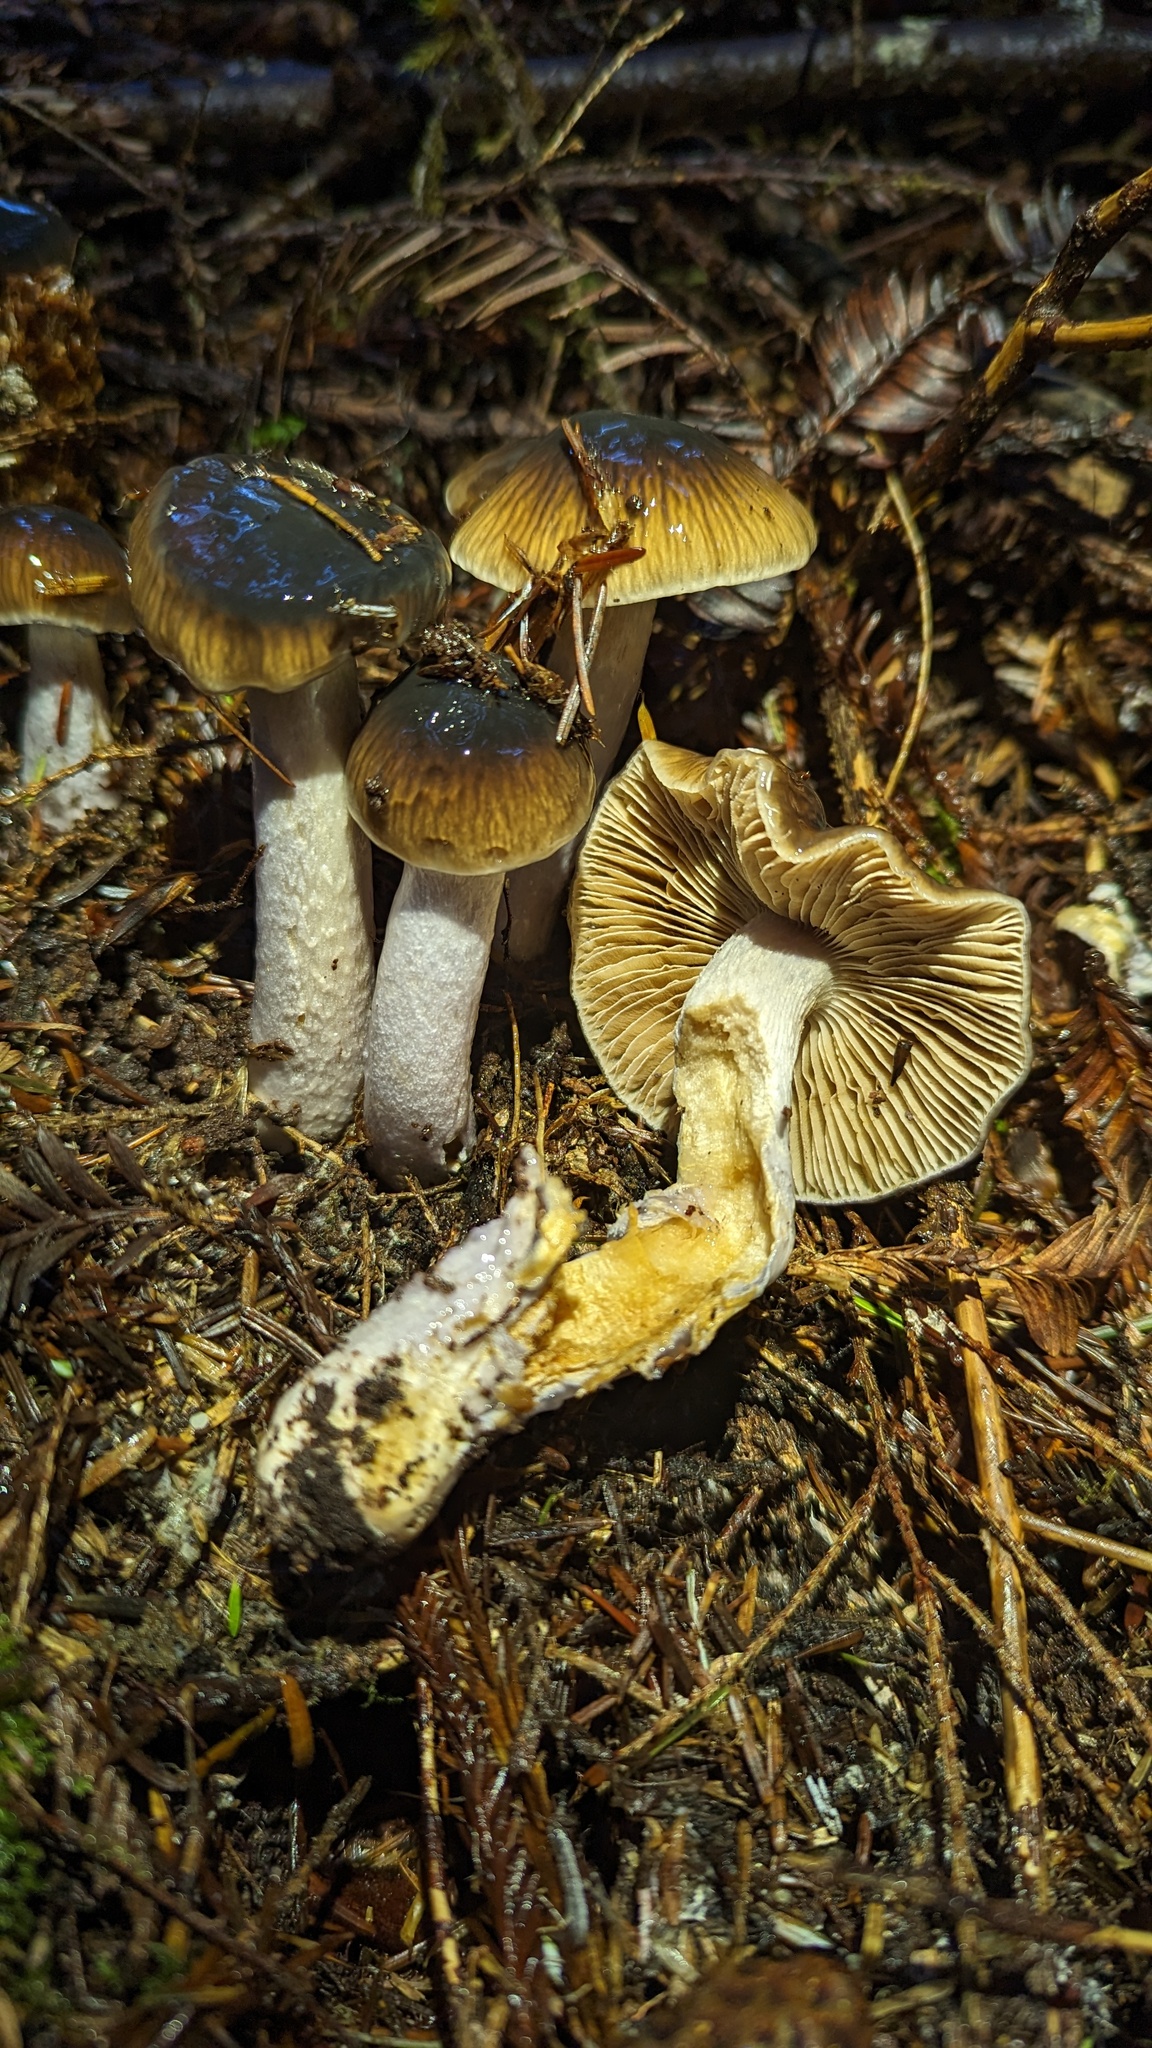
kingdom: Fungi
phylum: Basidiomycota
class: Agaricomycetes
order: Agaricales
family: Cortinariaceae
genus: Cortinarius
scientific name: Cortinarius seidliae
